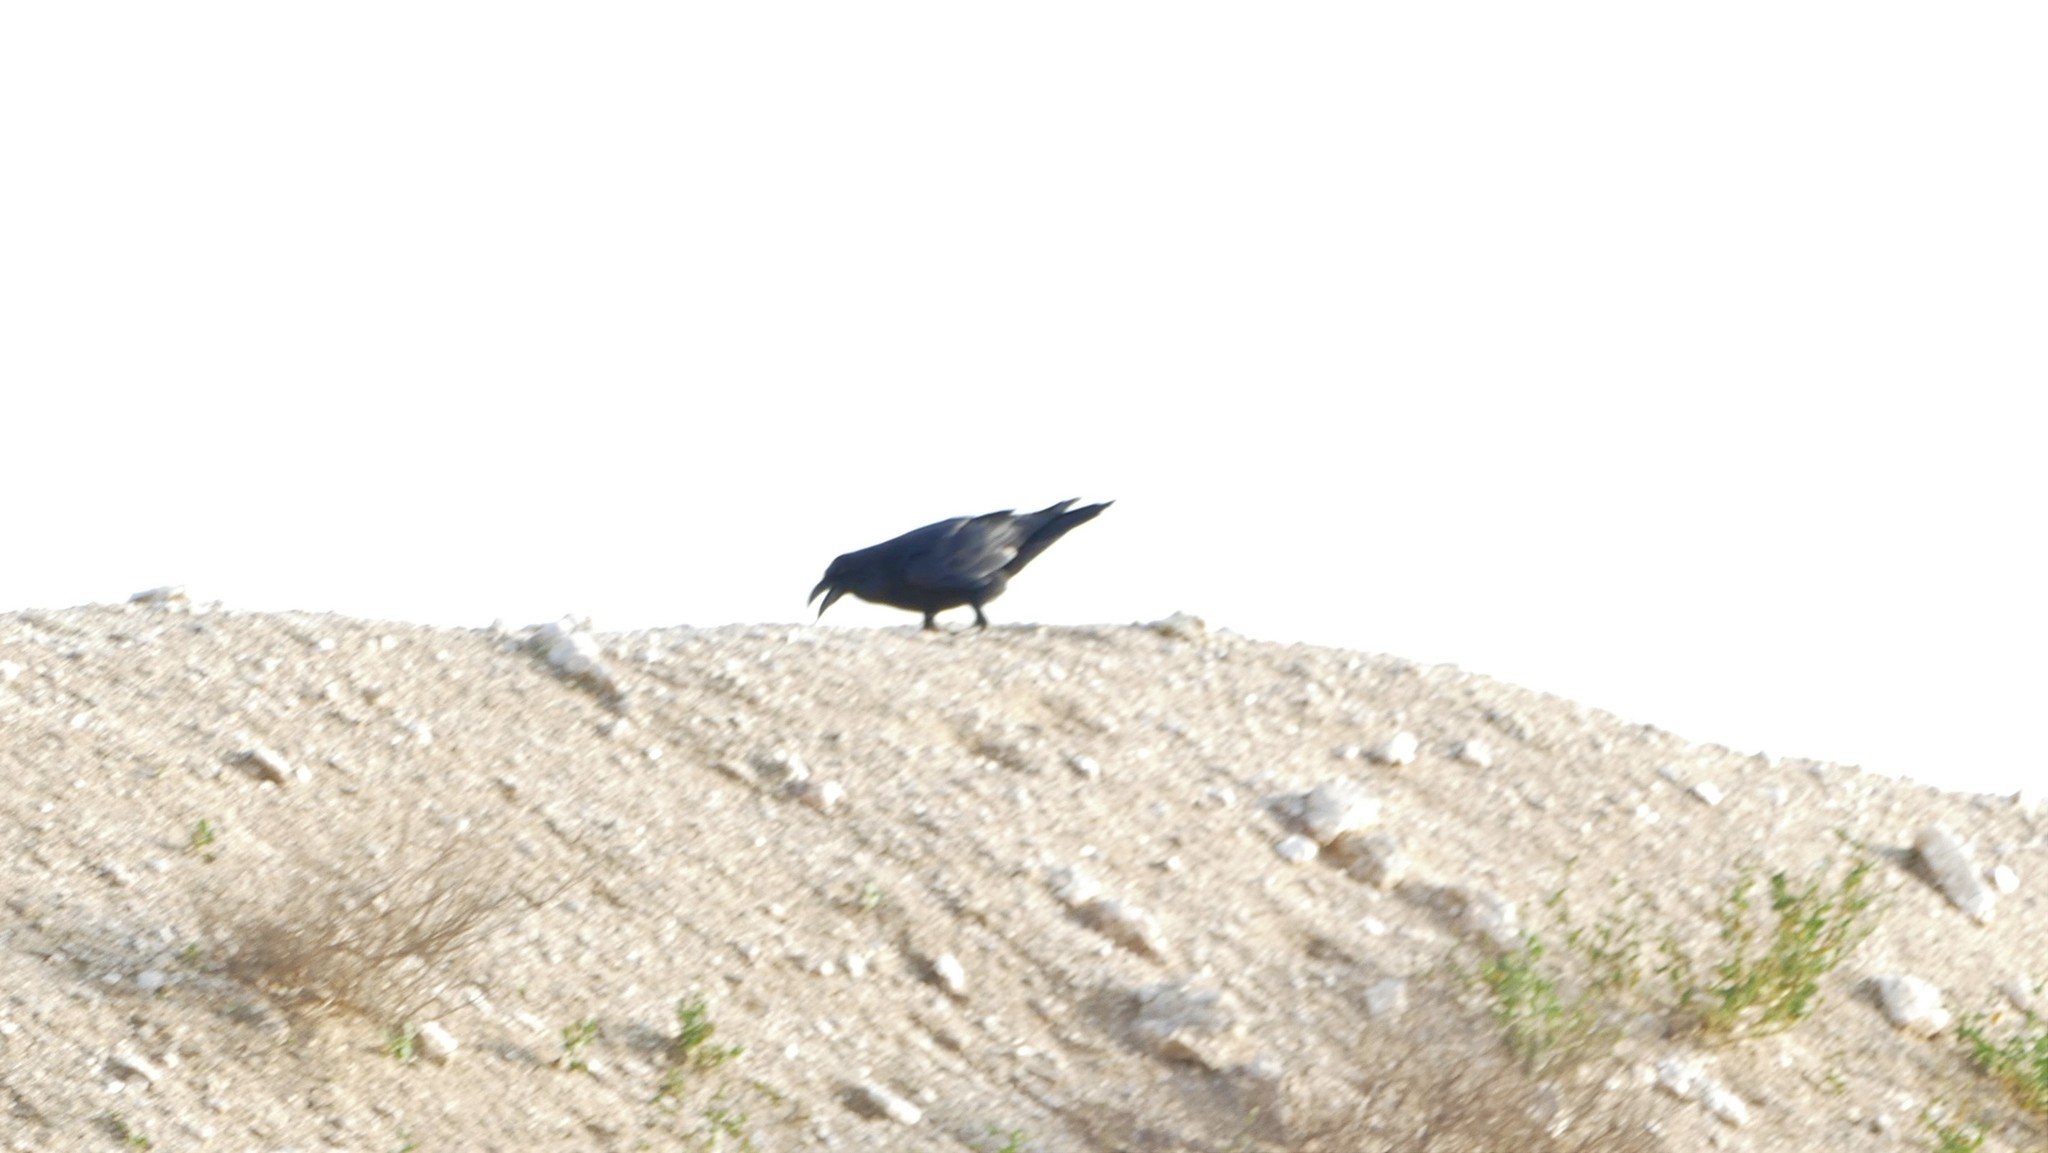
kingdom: Animalia
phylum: Chordata
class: Aves
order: Passeriformes
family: Corvidae
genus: Corvus
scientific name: Corvus corax
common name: Common raven
